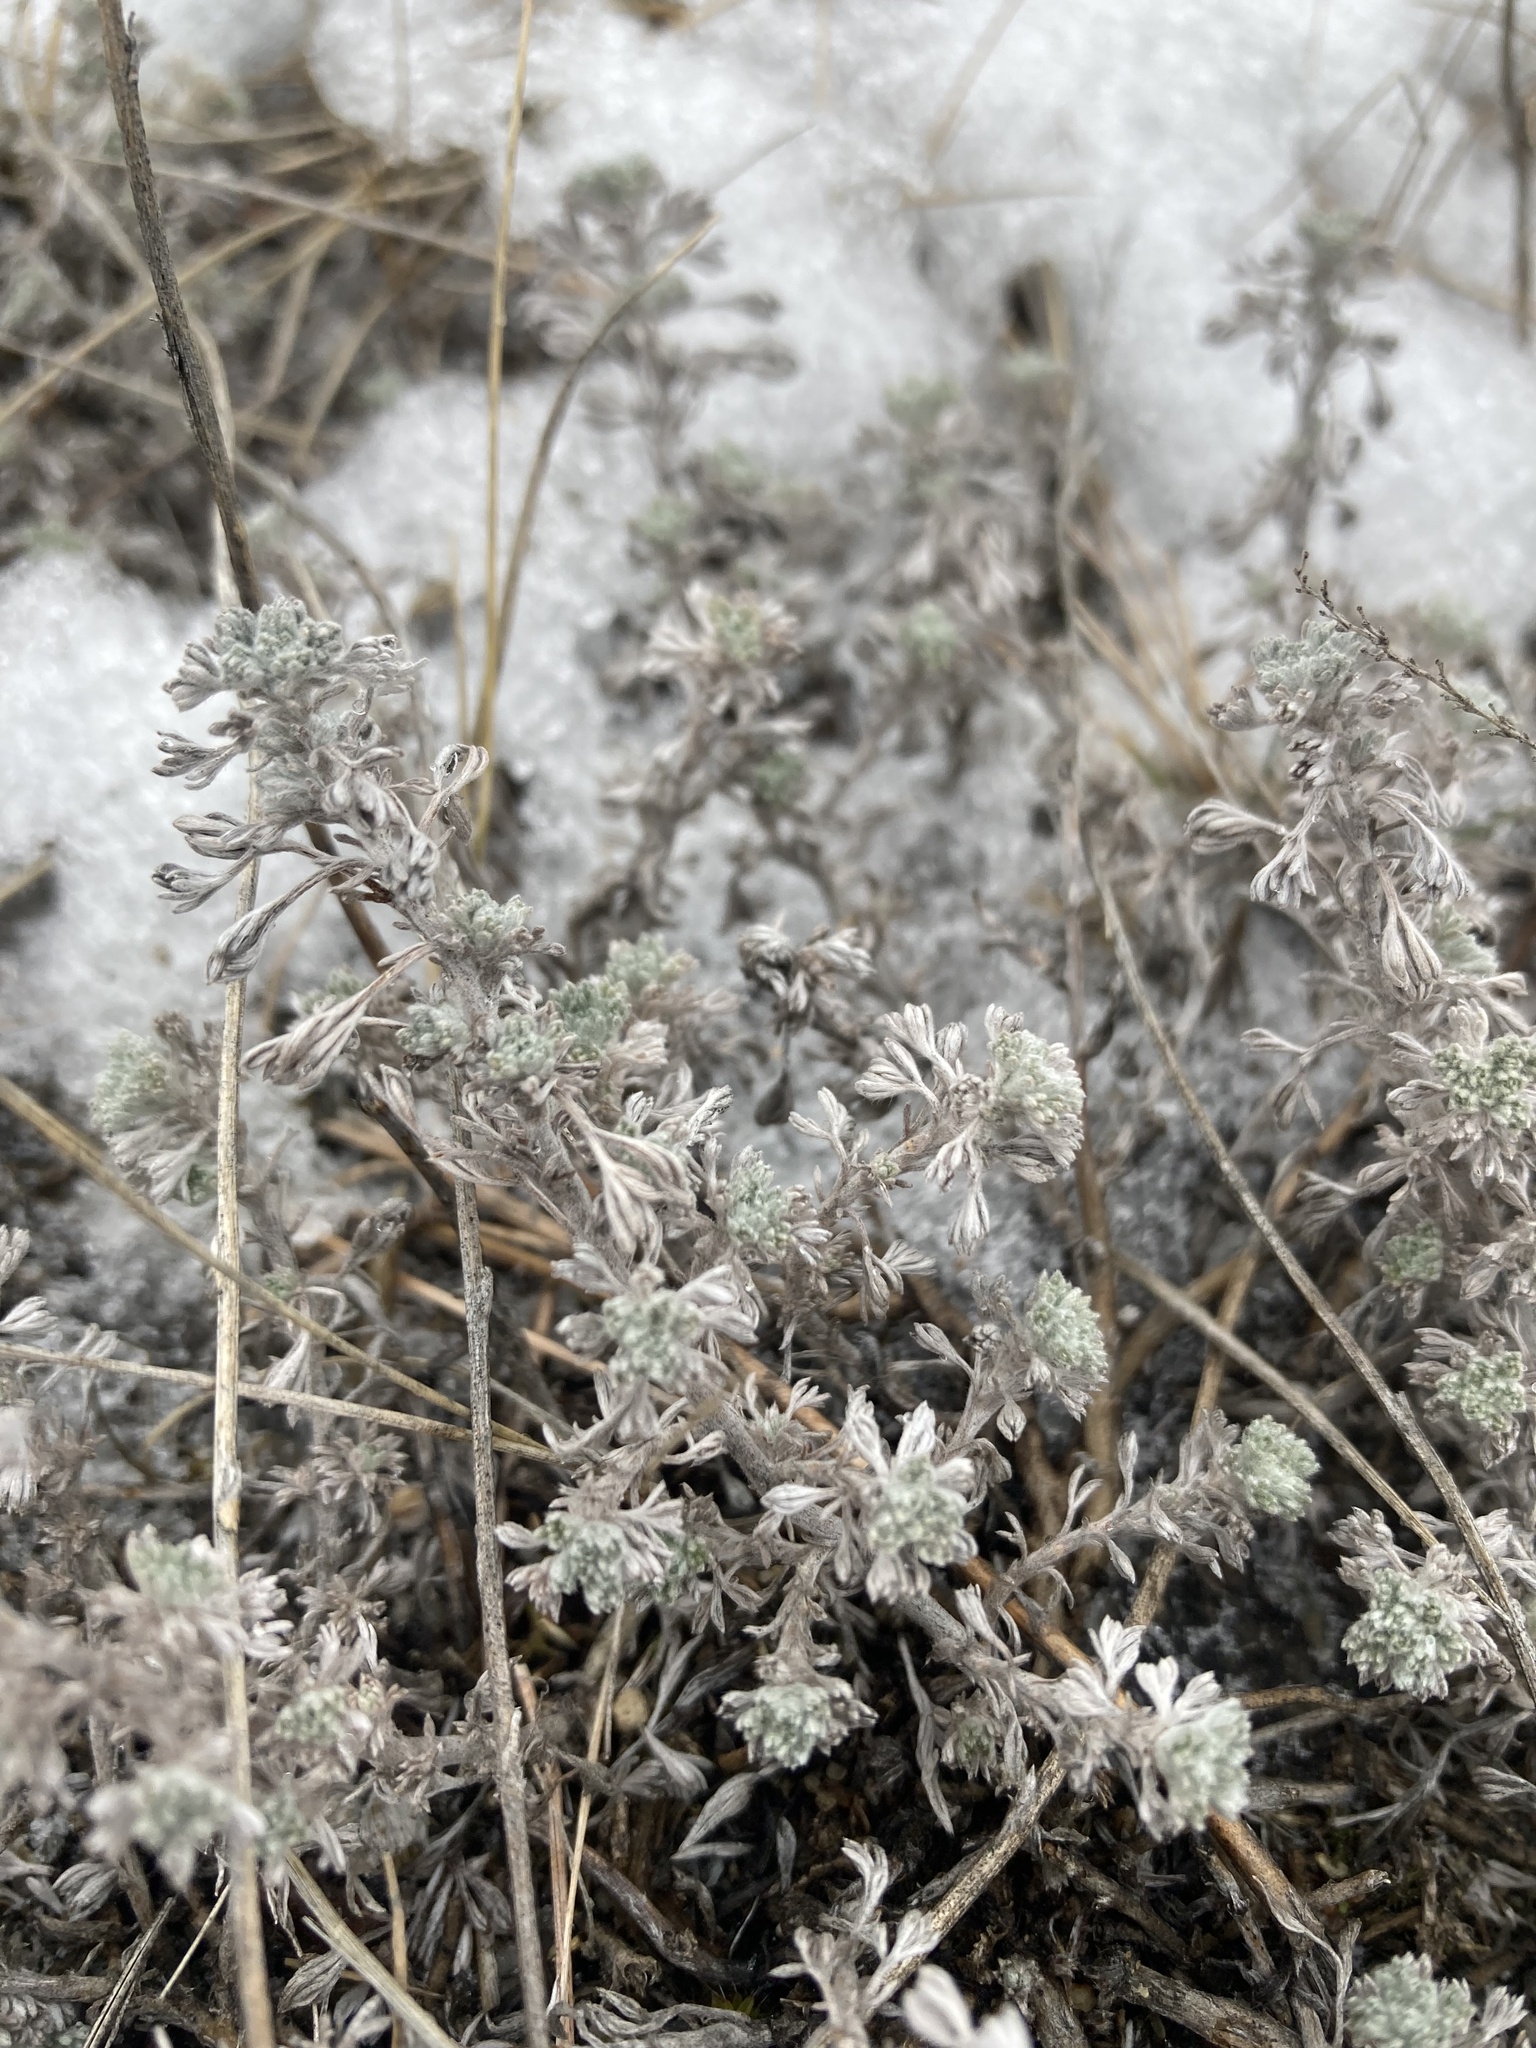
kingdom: Plantae
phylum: Tracheophyta
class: Magnoliopsida
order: Asterales
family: Asteraceae
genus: Artemisia
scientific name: Artemisia frigida
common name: Prairie sagewort
